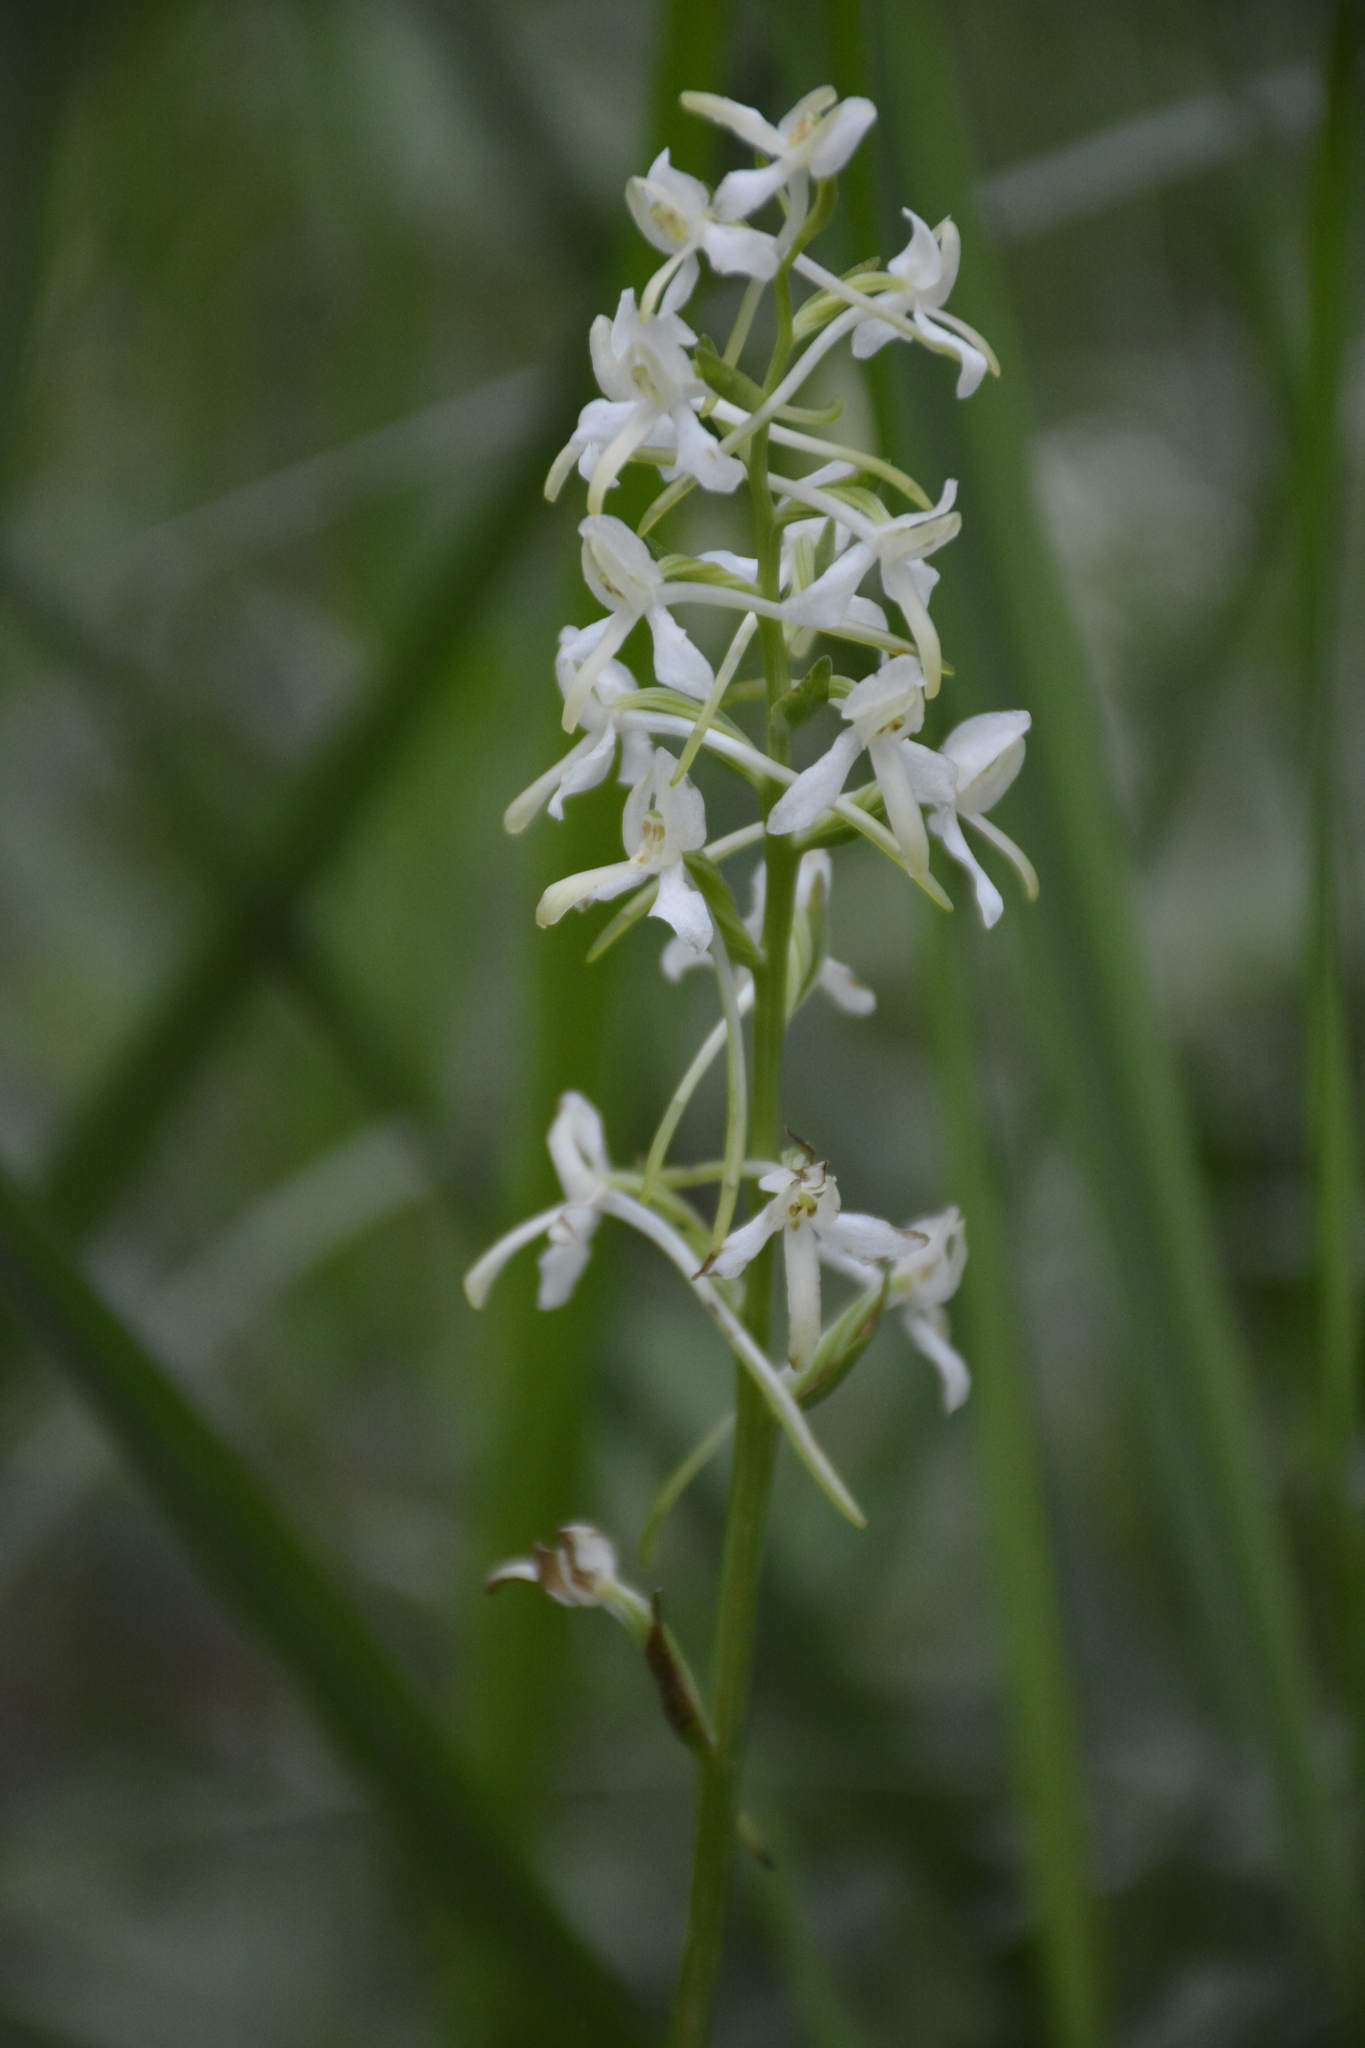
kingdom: Plantae
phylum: Tracheophyta
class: Liliopsida
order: Asparagales
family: Orchidaceae
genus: Platanthera
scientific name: Platanthera bifolia
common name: Lesser butterfly-orchid
